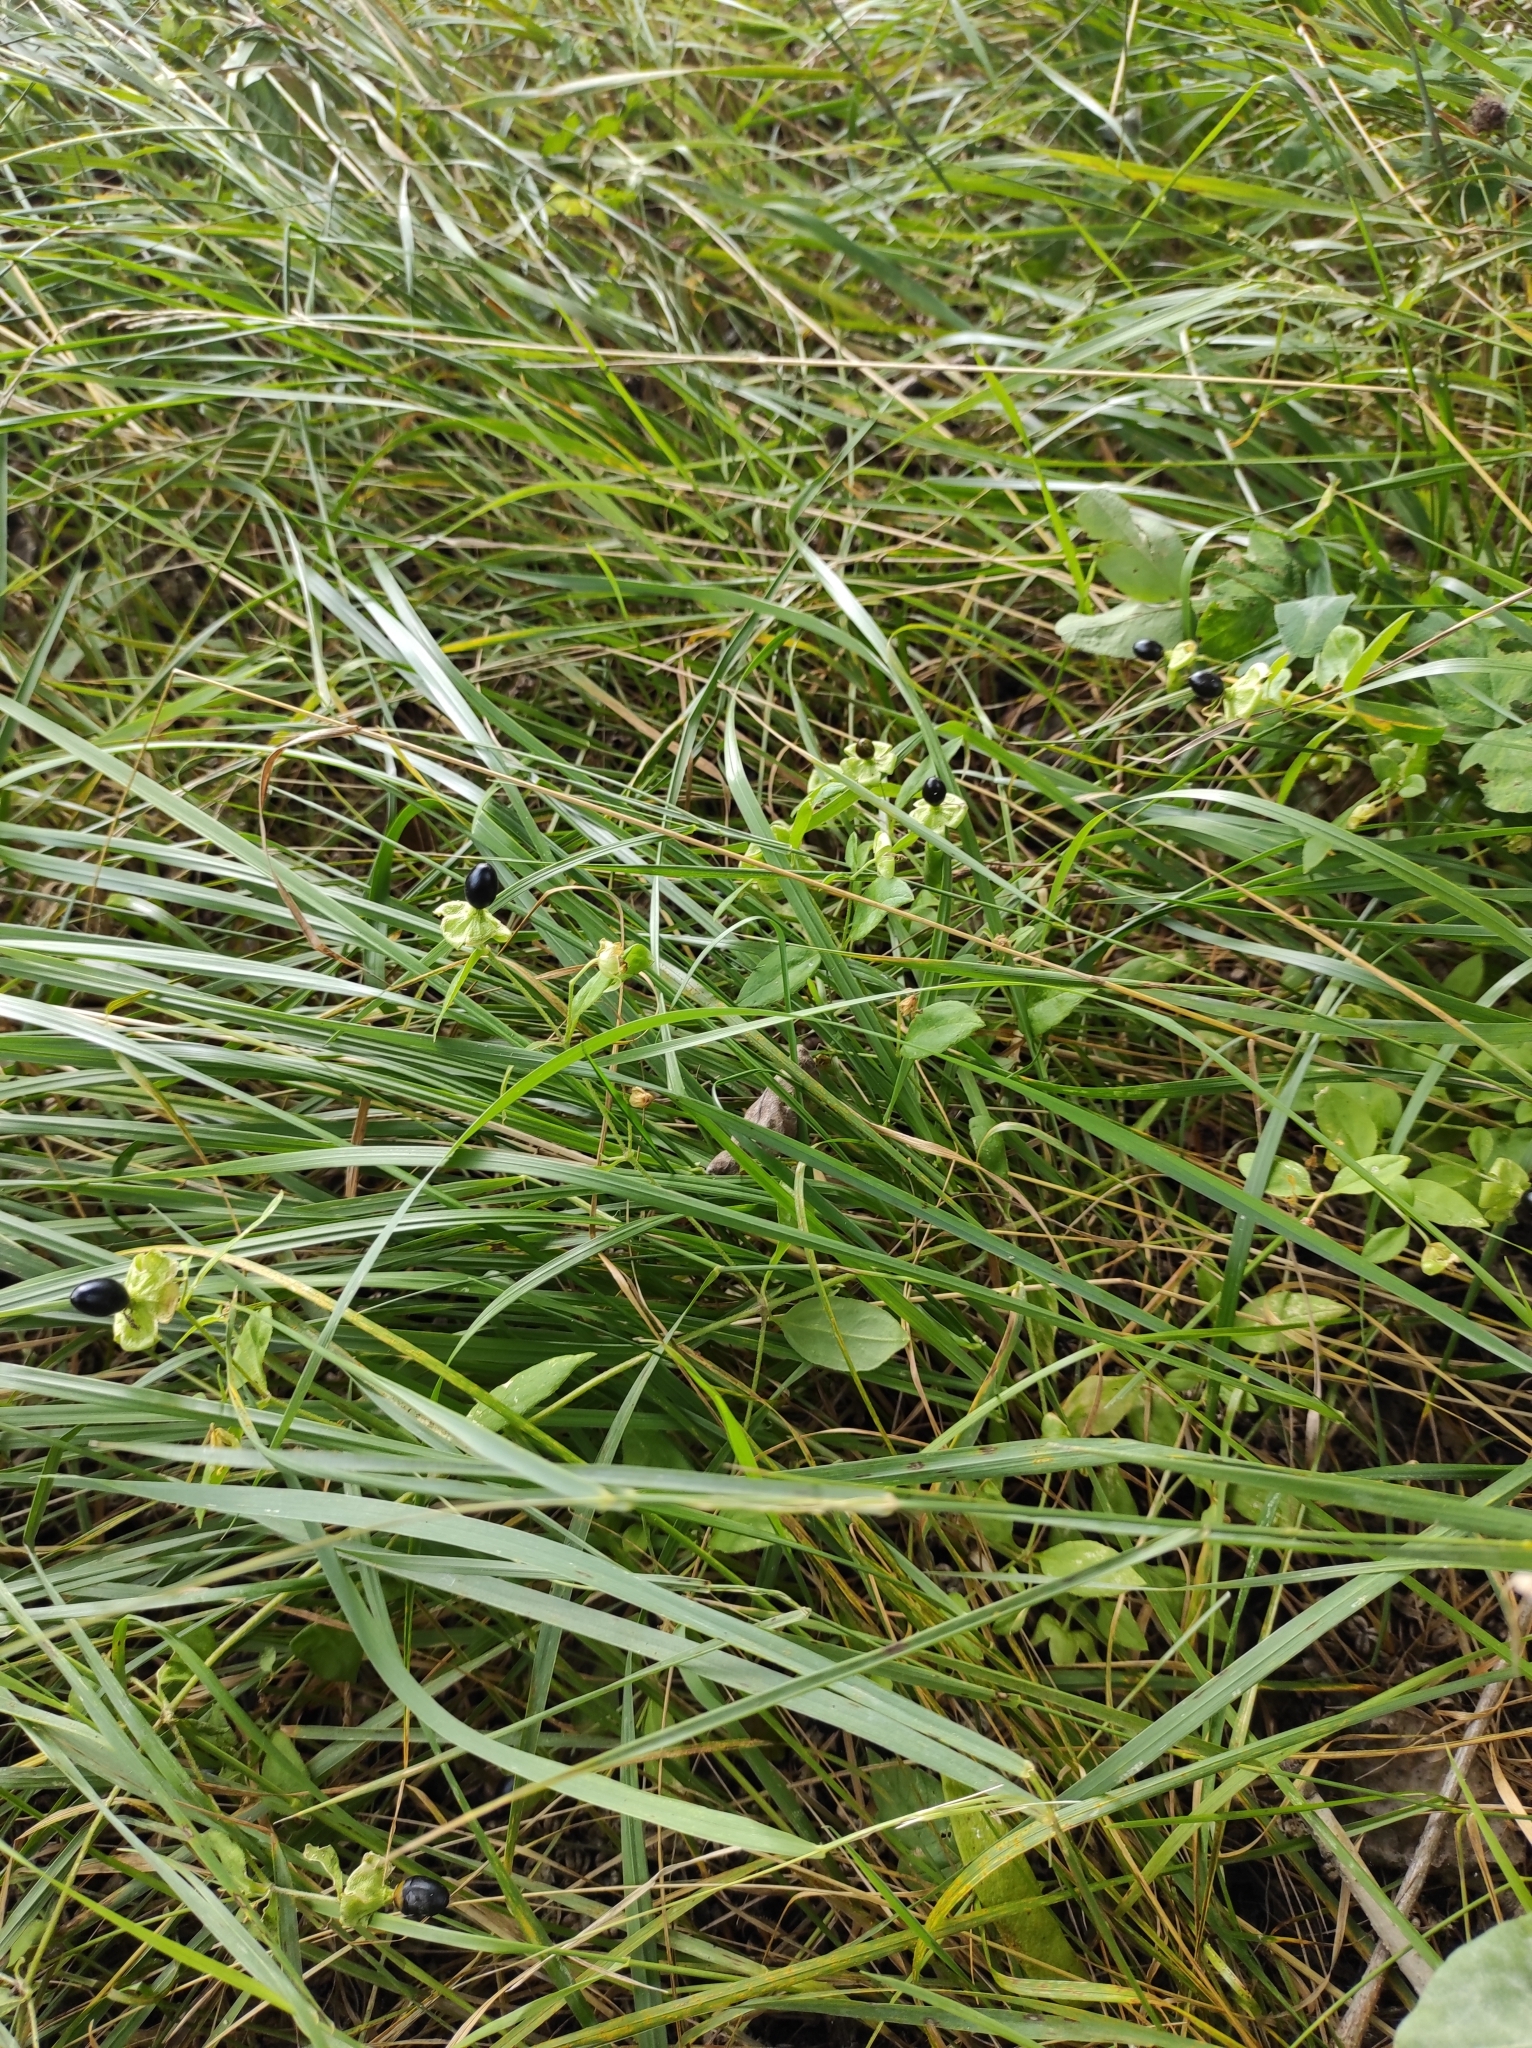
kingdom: Plantae
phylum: Tracheophyta
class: Magnoliopsida
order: Caryophyllales
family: Caryophyllaceae
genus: Silene
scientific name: Silene baccifera
